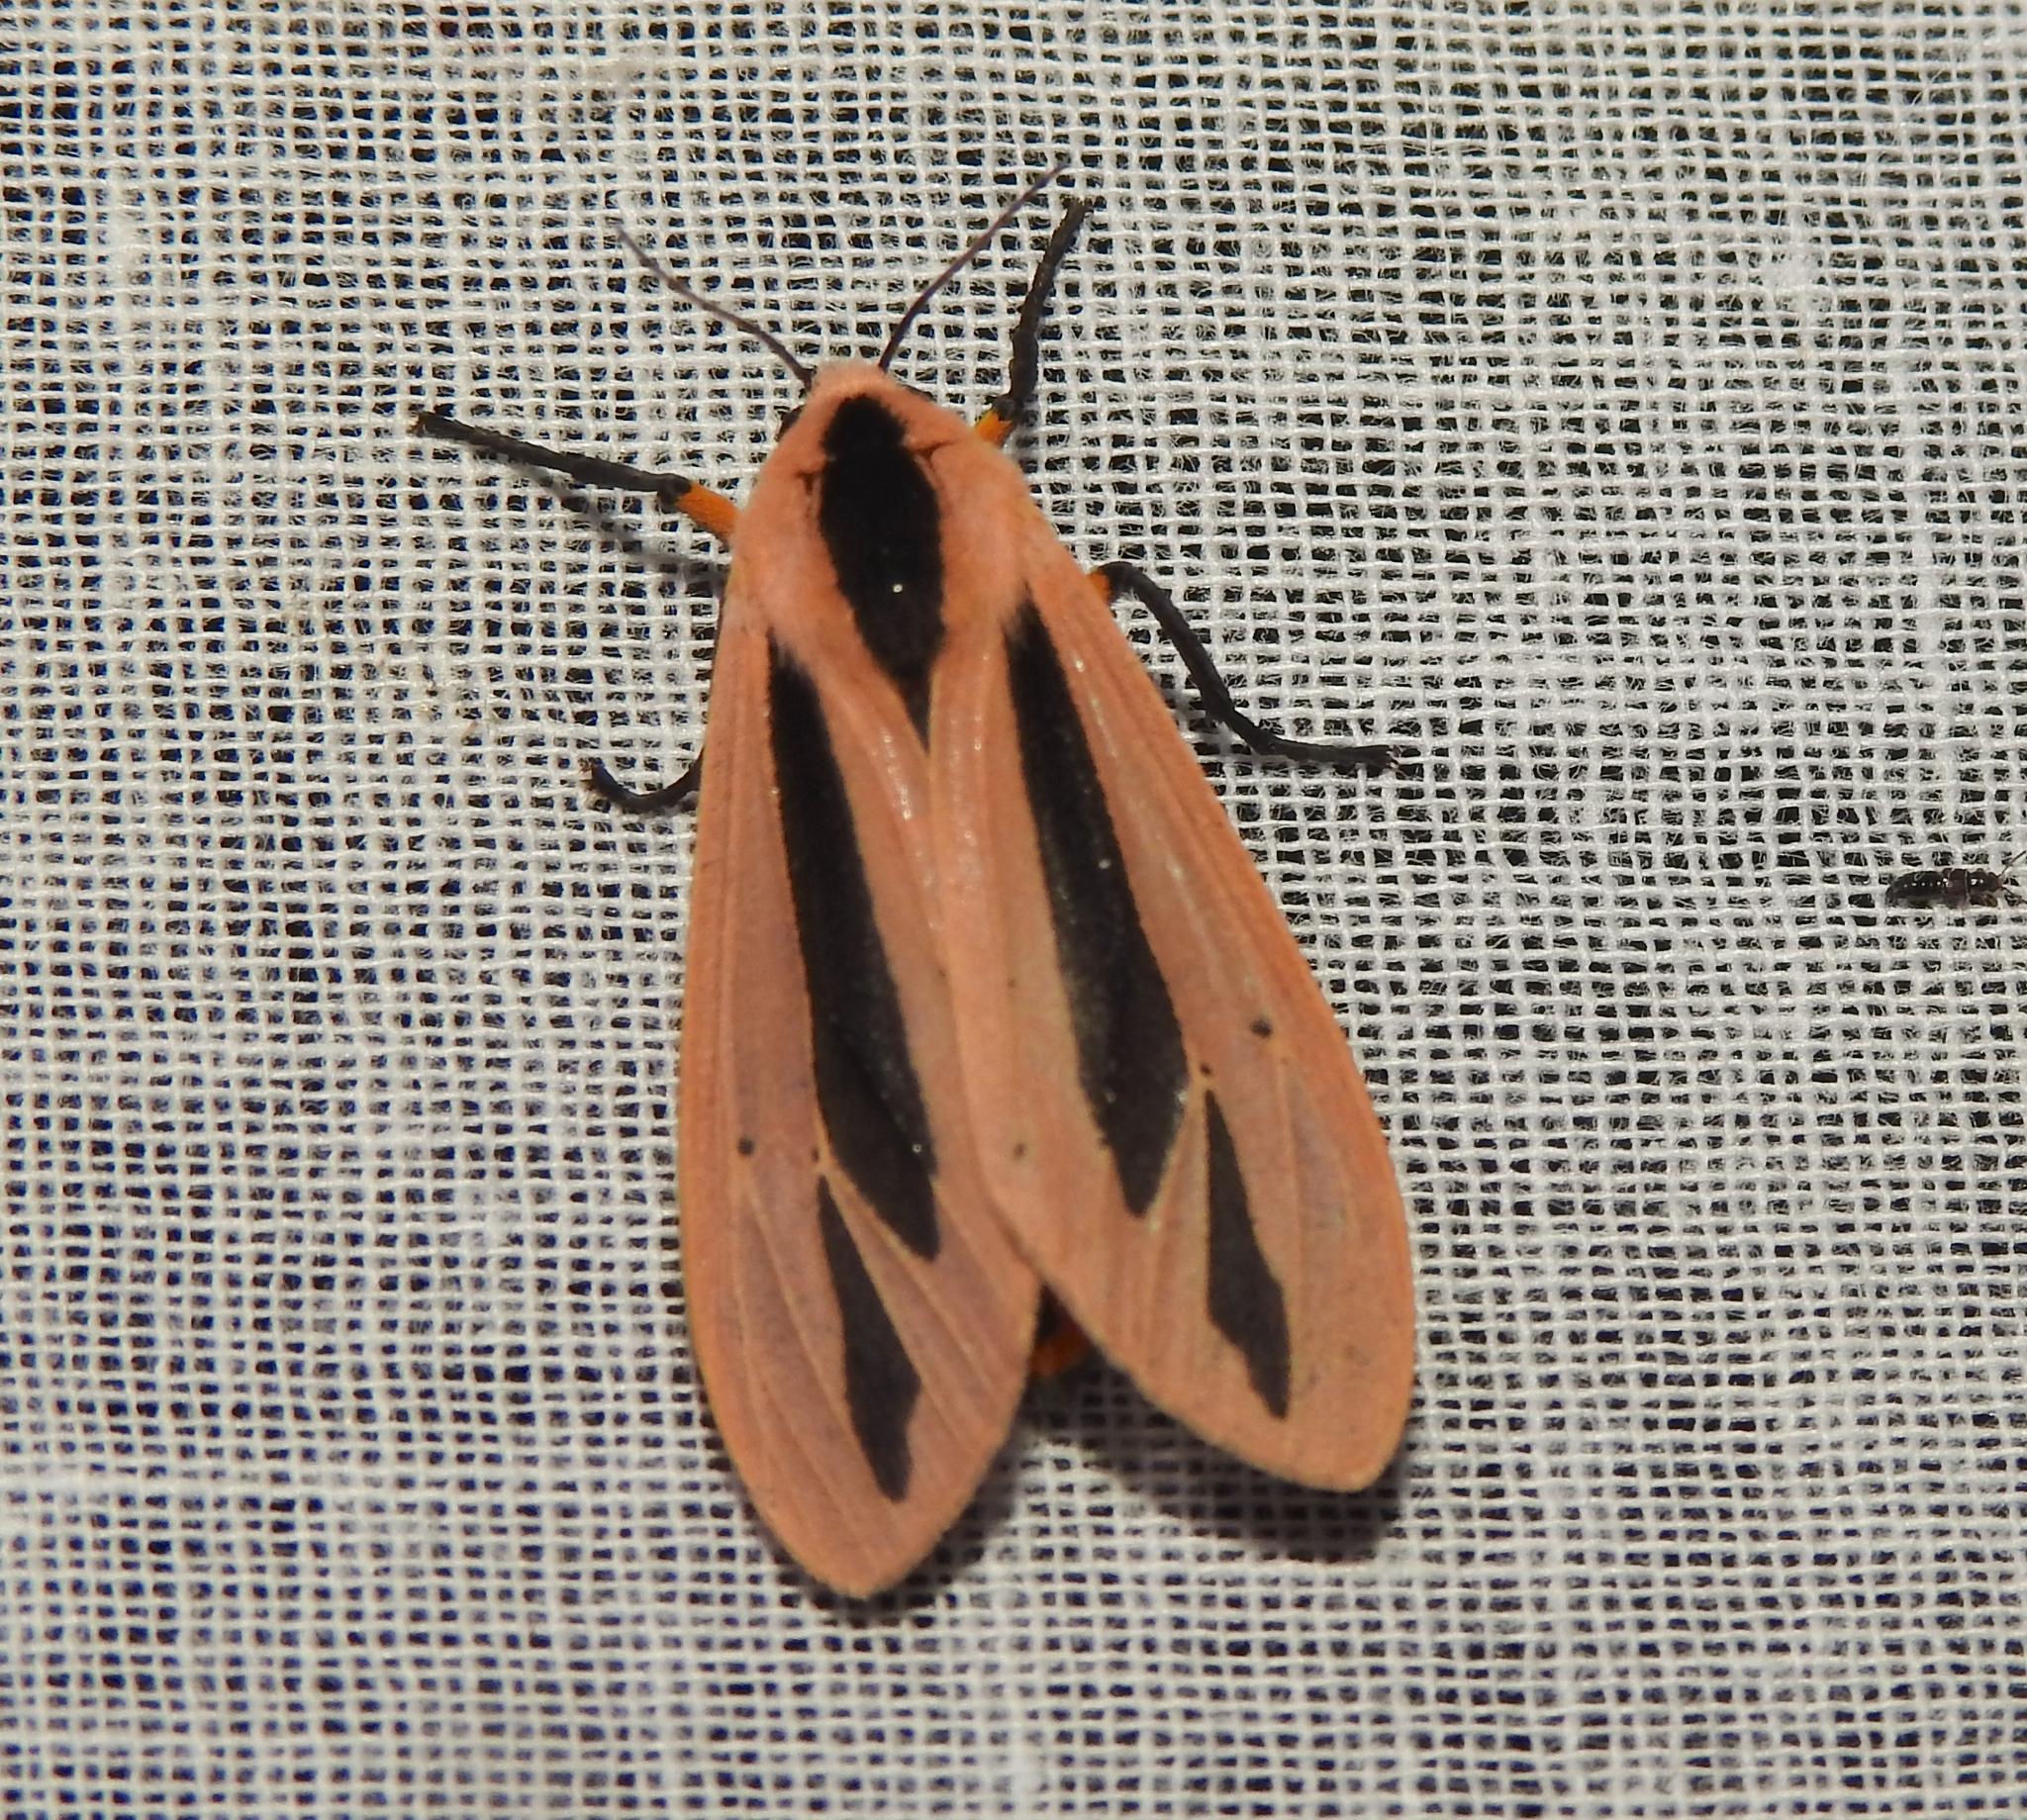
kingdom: Animalia
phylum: Arthropoda
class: Insecta
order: Lepidoptera
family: Erebidae
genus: Creatonotos
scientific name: Creatonotos
